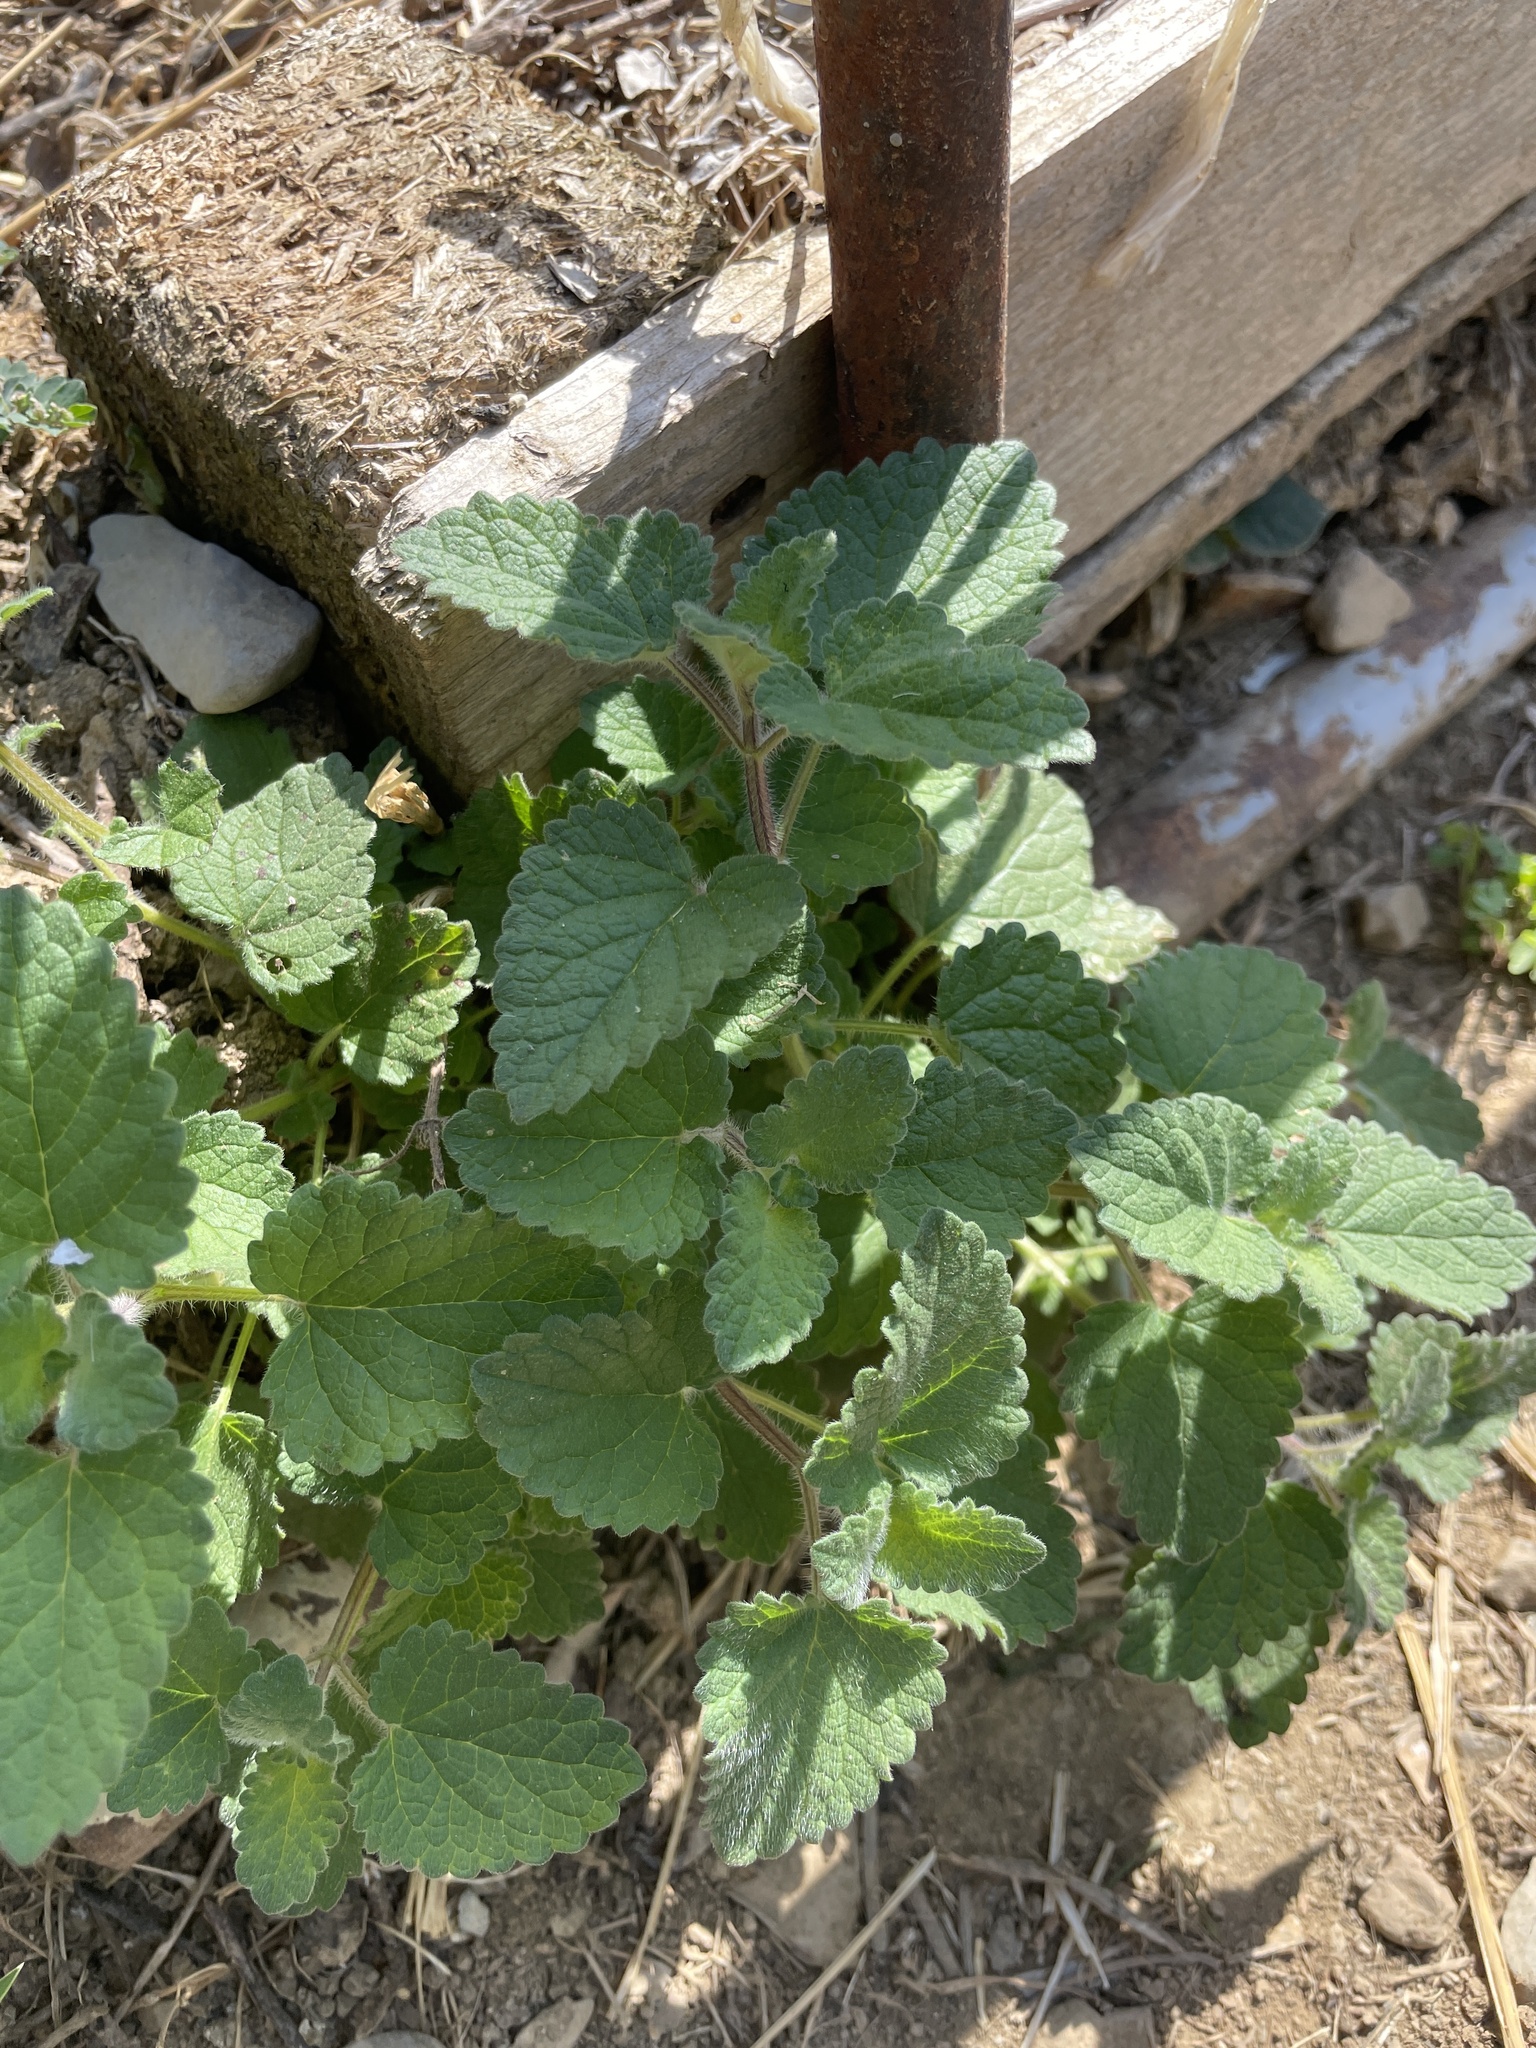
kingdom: Plantae
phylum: Tracheophyta
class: Magnoliopsida
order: Lamiales
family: Lamiaceae
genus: Melissa
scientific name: Melissa officinalis
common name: Balm
